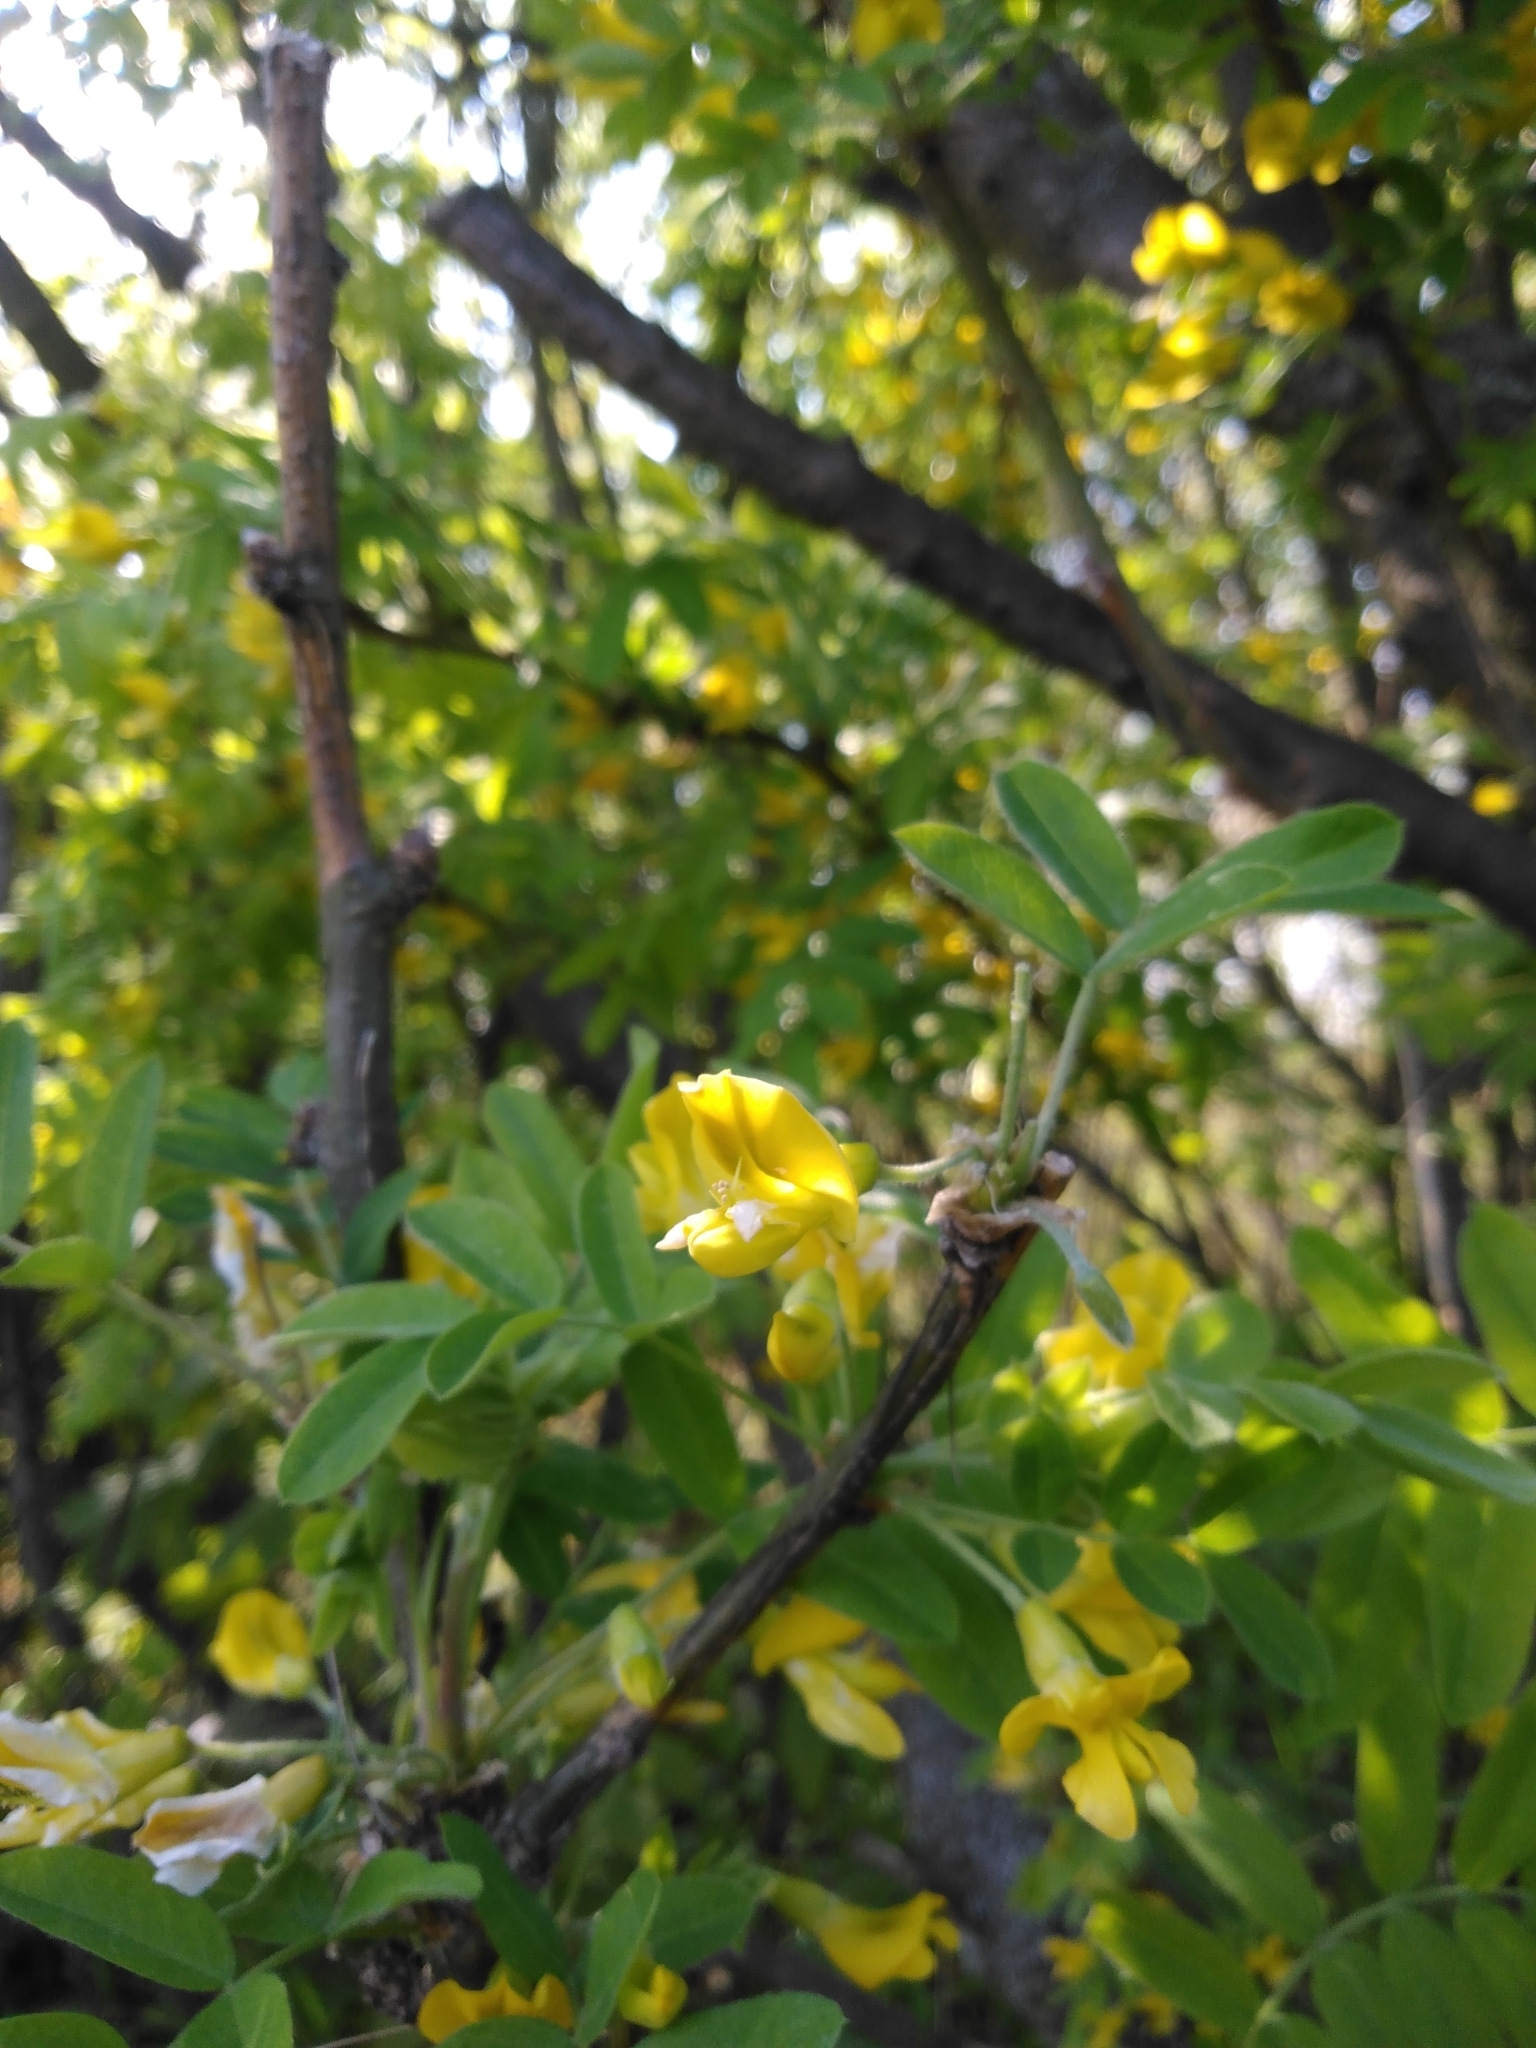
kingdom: Plantae
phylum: Tracheophyta
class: Magnoliopsida
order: Fabales
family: Fabaceae
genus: Caragana
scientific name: Caragana arborescens
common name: Siberian peashrub
